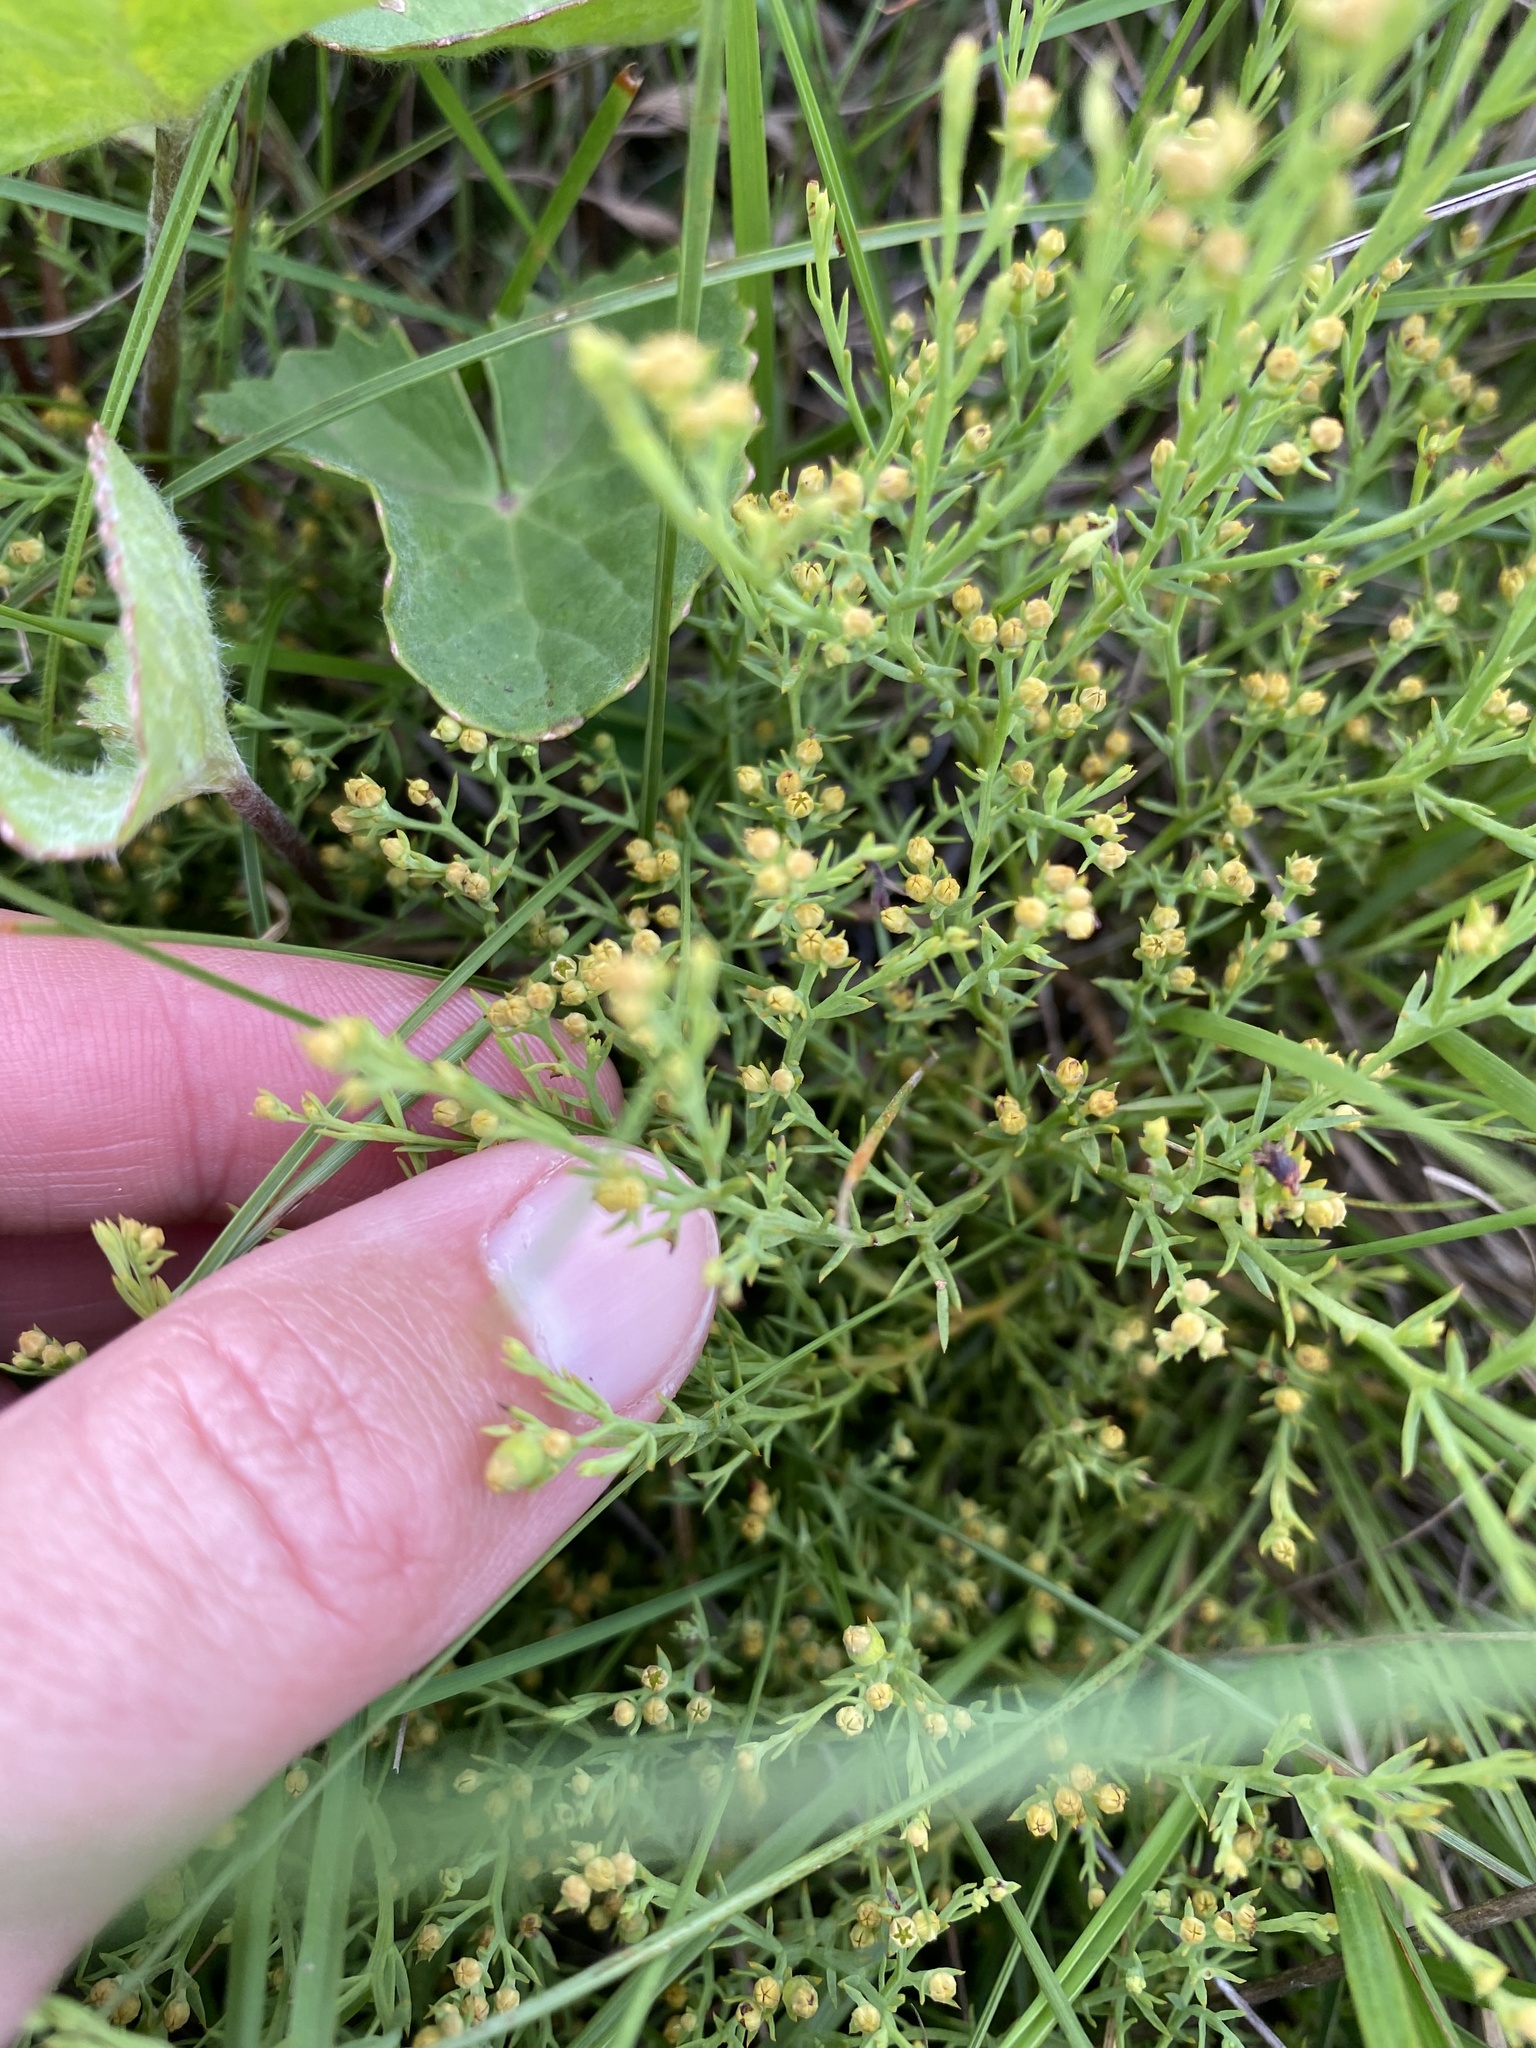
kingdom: Plantae
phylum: Tracheophyta
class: Magnoliopsida
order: Santalales
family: Thesiaceae
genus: Thesium
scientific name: Thesium pallidum
